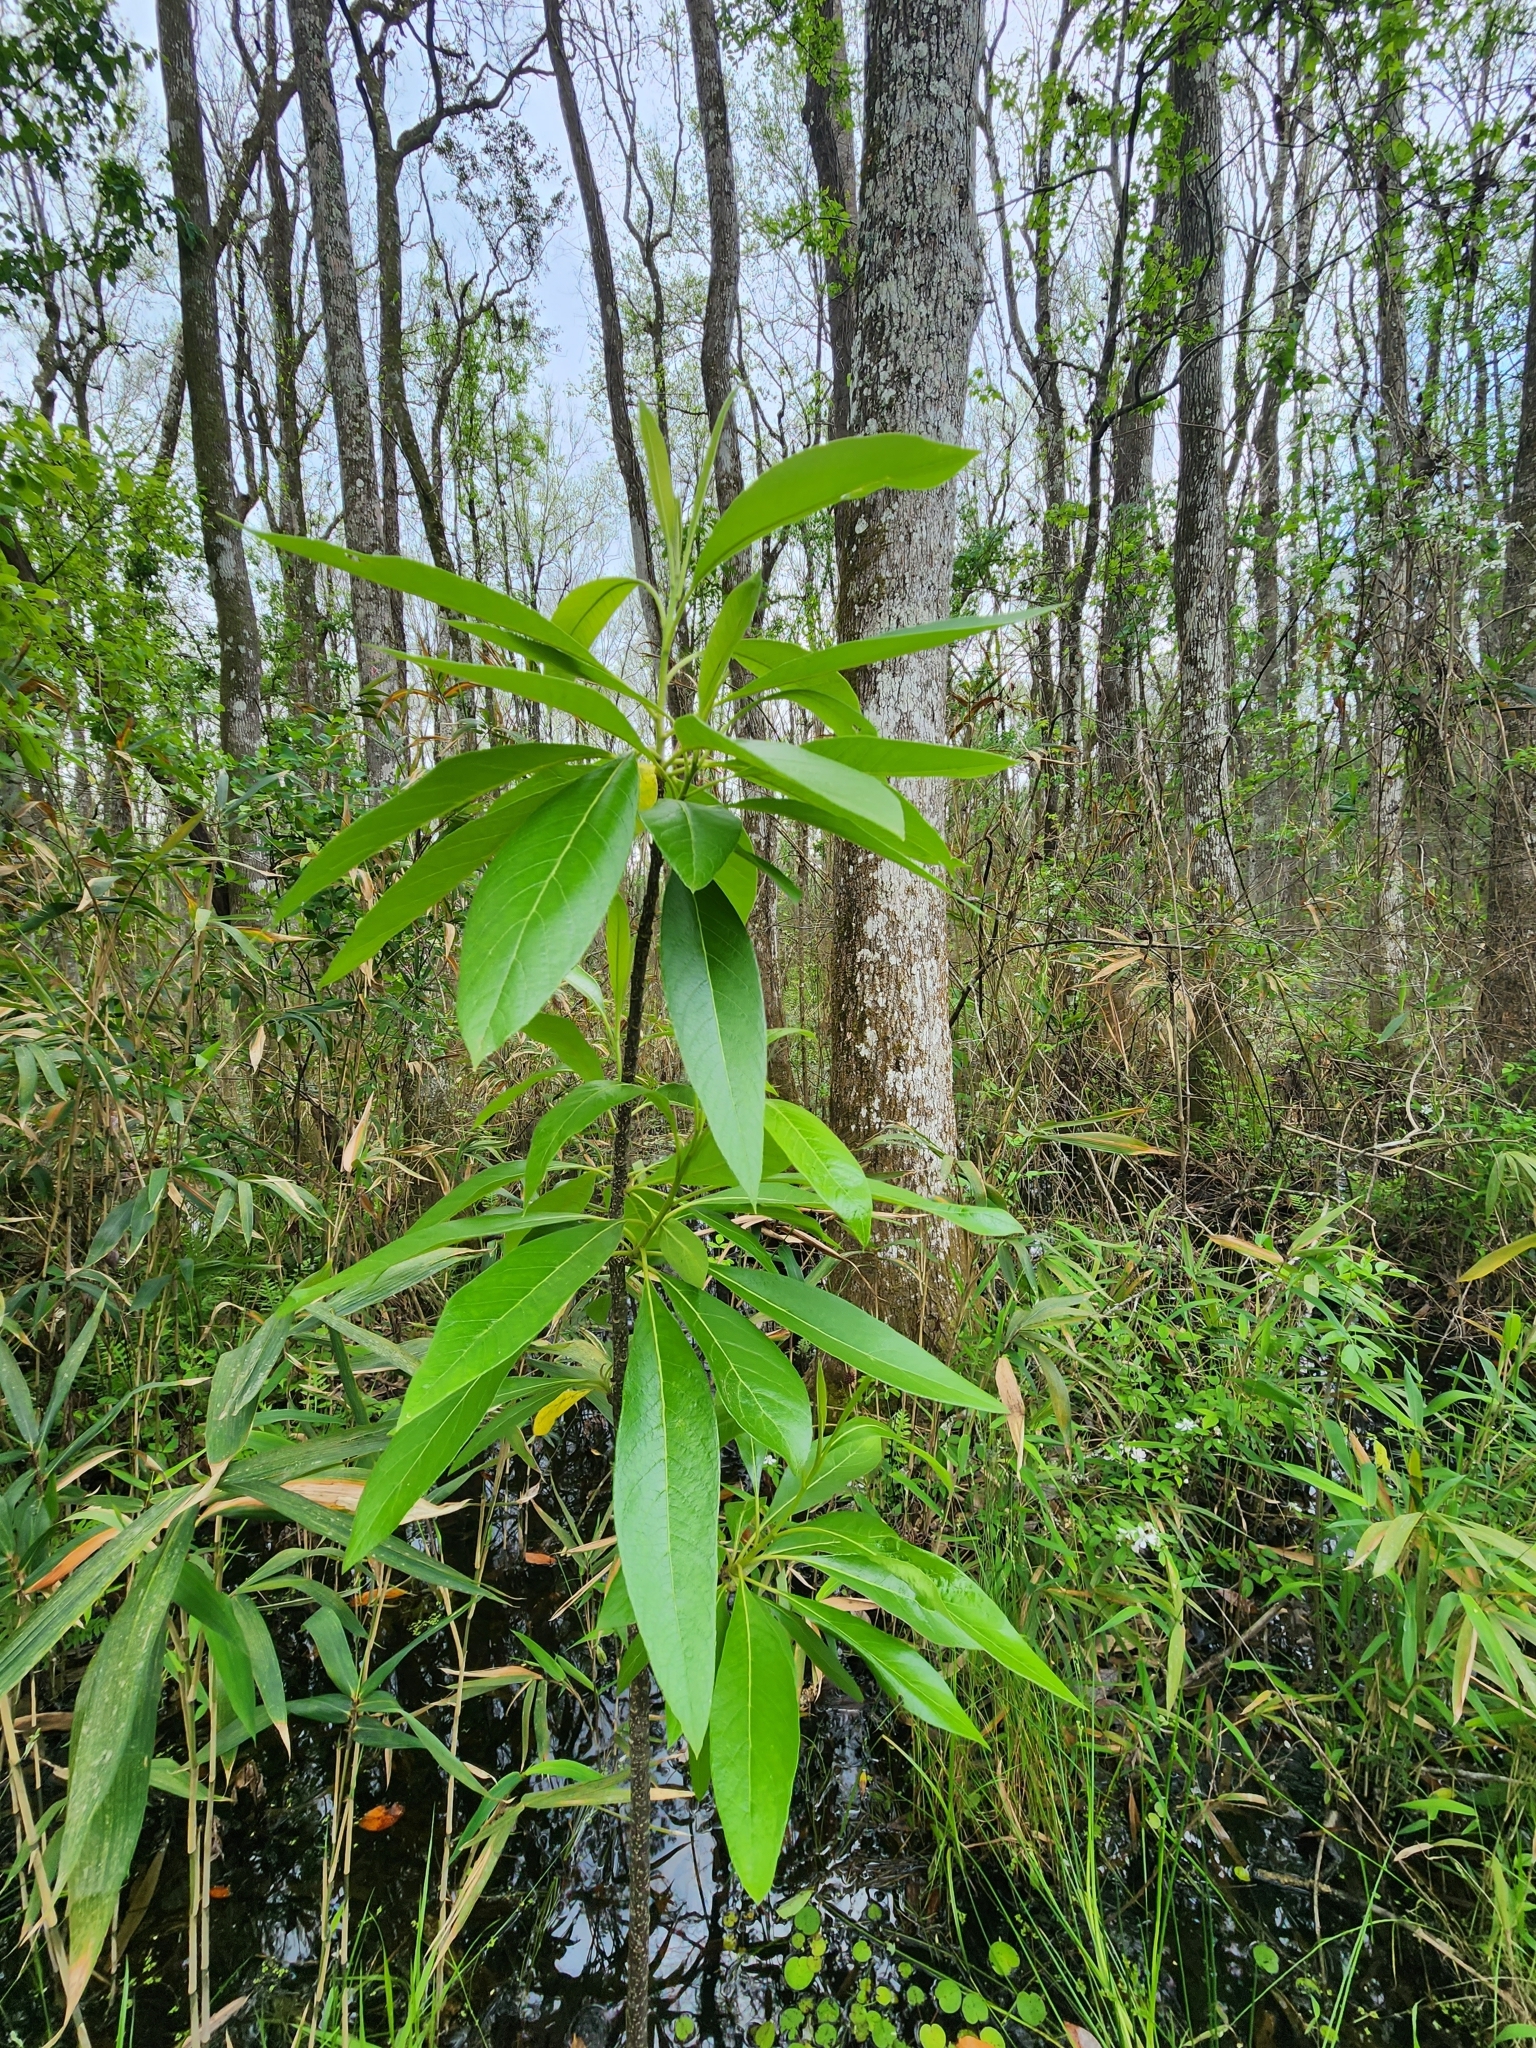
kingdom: Plantae
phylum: Tracheophyta
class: Magnoliopsida
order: Sapindales
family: Simaroubaceae
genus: Leitneria
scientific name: Leitneria floridana
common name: Corkwood
